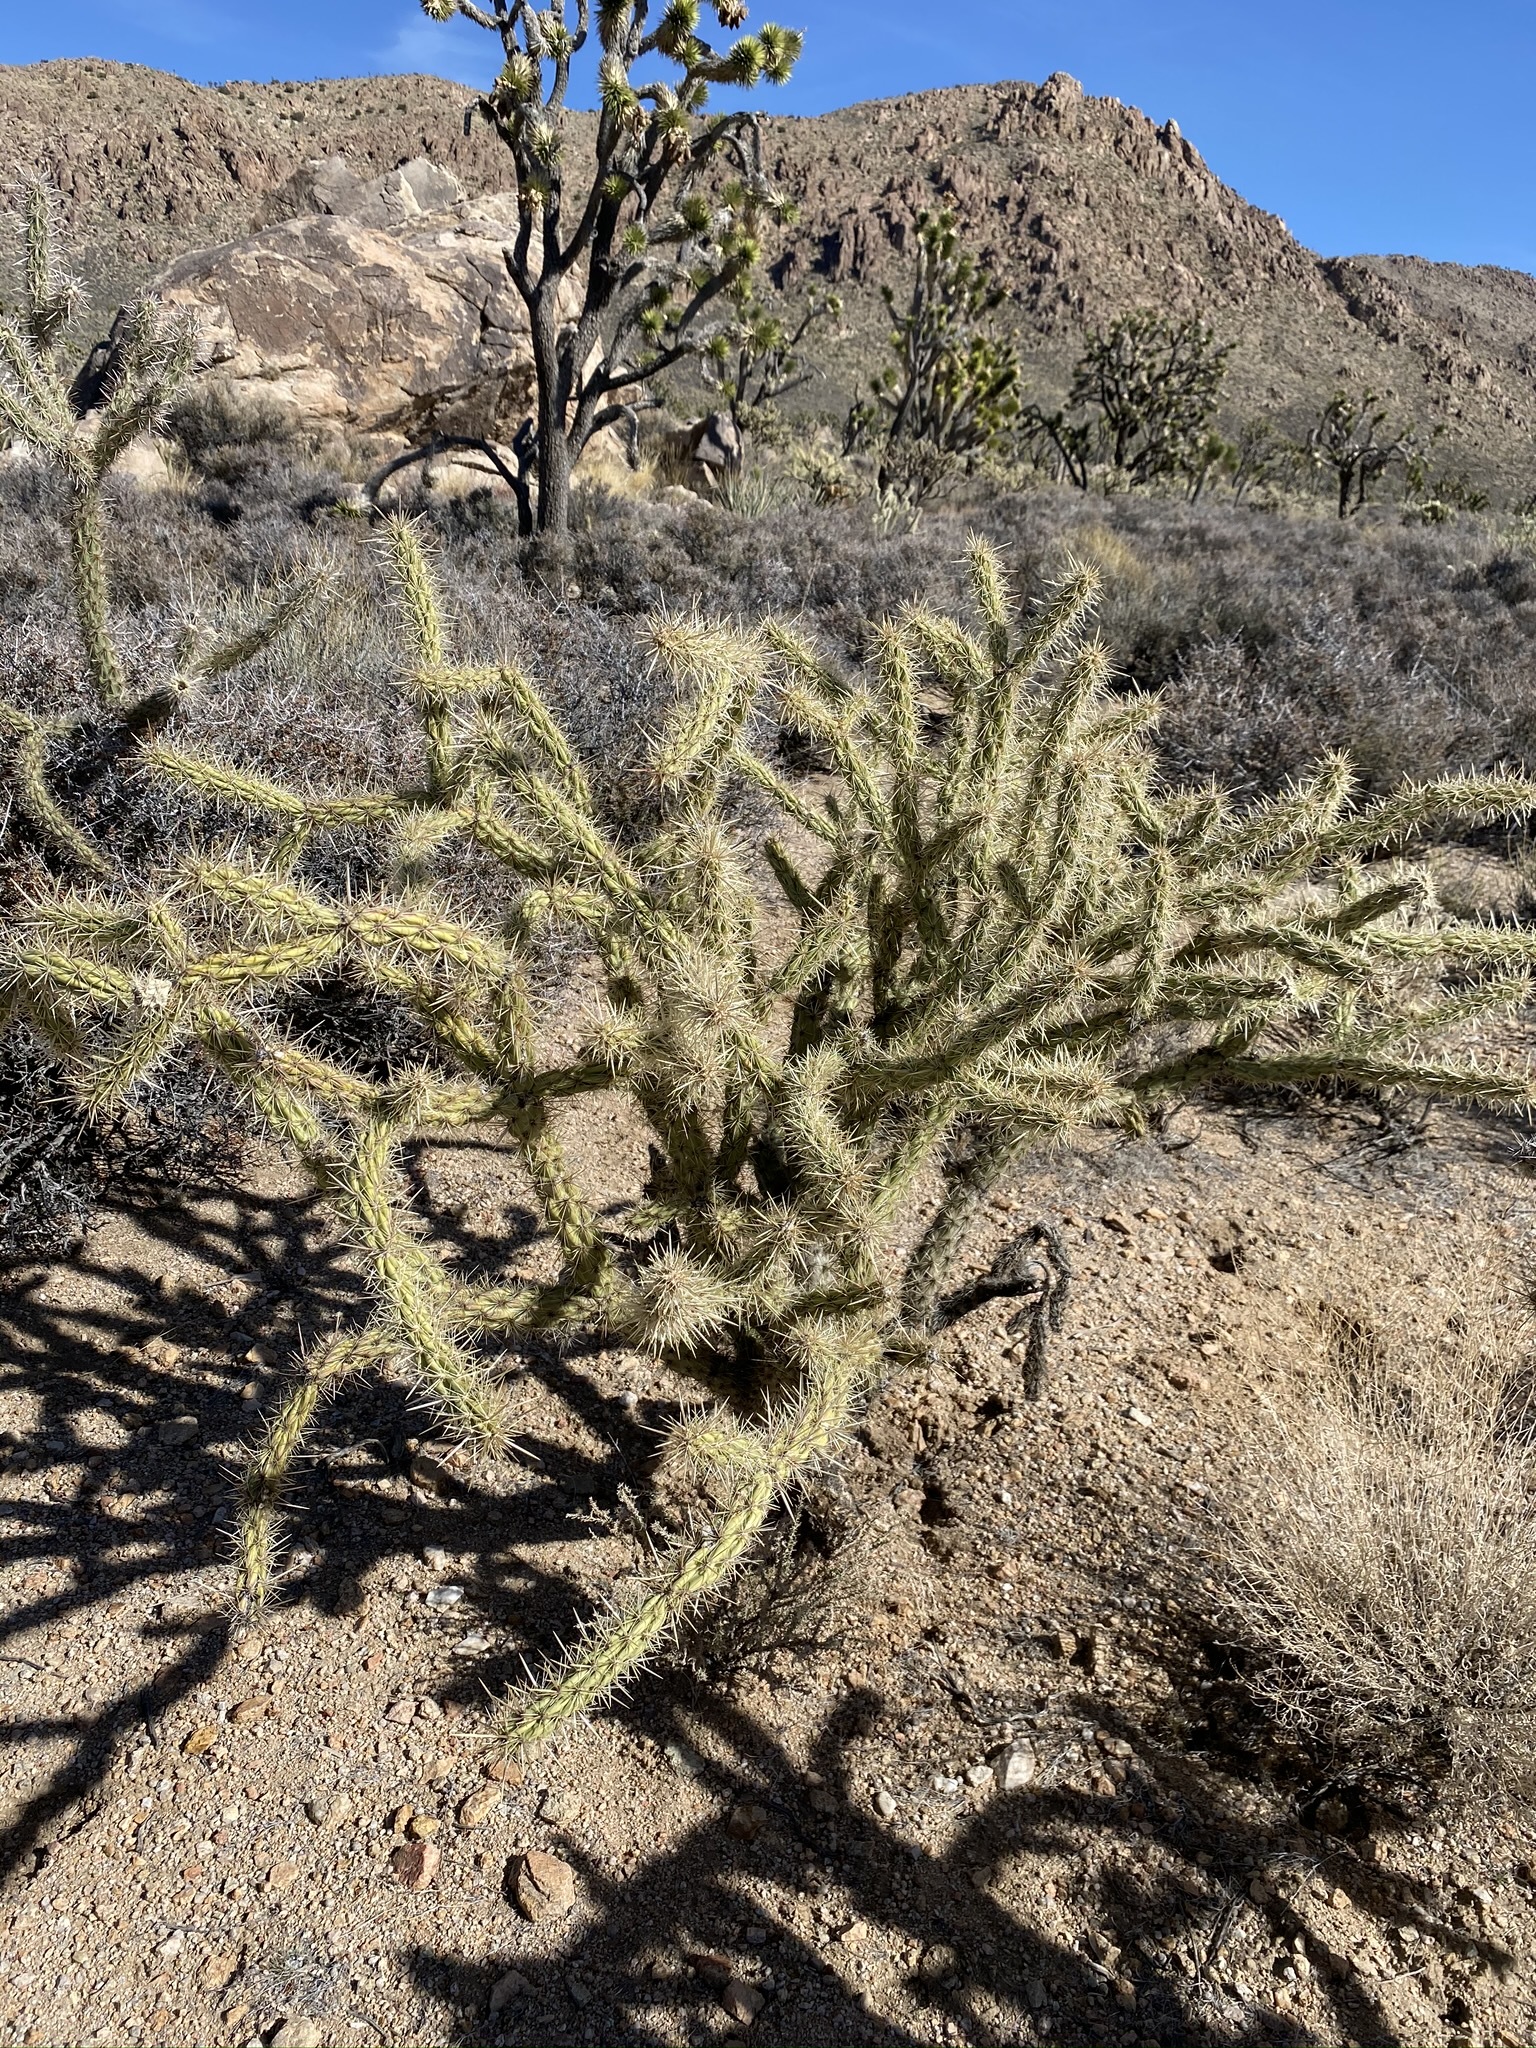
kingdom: Plantae
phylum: Tracheophyta
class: Magnoliopsida
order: Caryophyllales
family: Cactaceae
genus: Cylindropuntia
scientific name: Cylindropuntia acanthocarpa
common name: Buckhorn cholla
